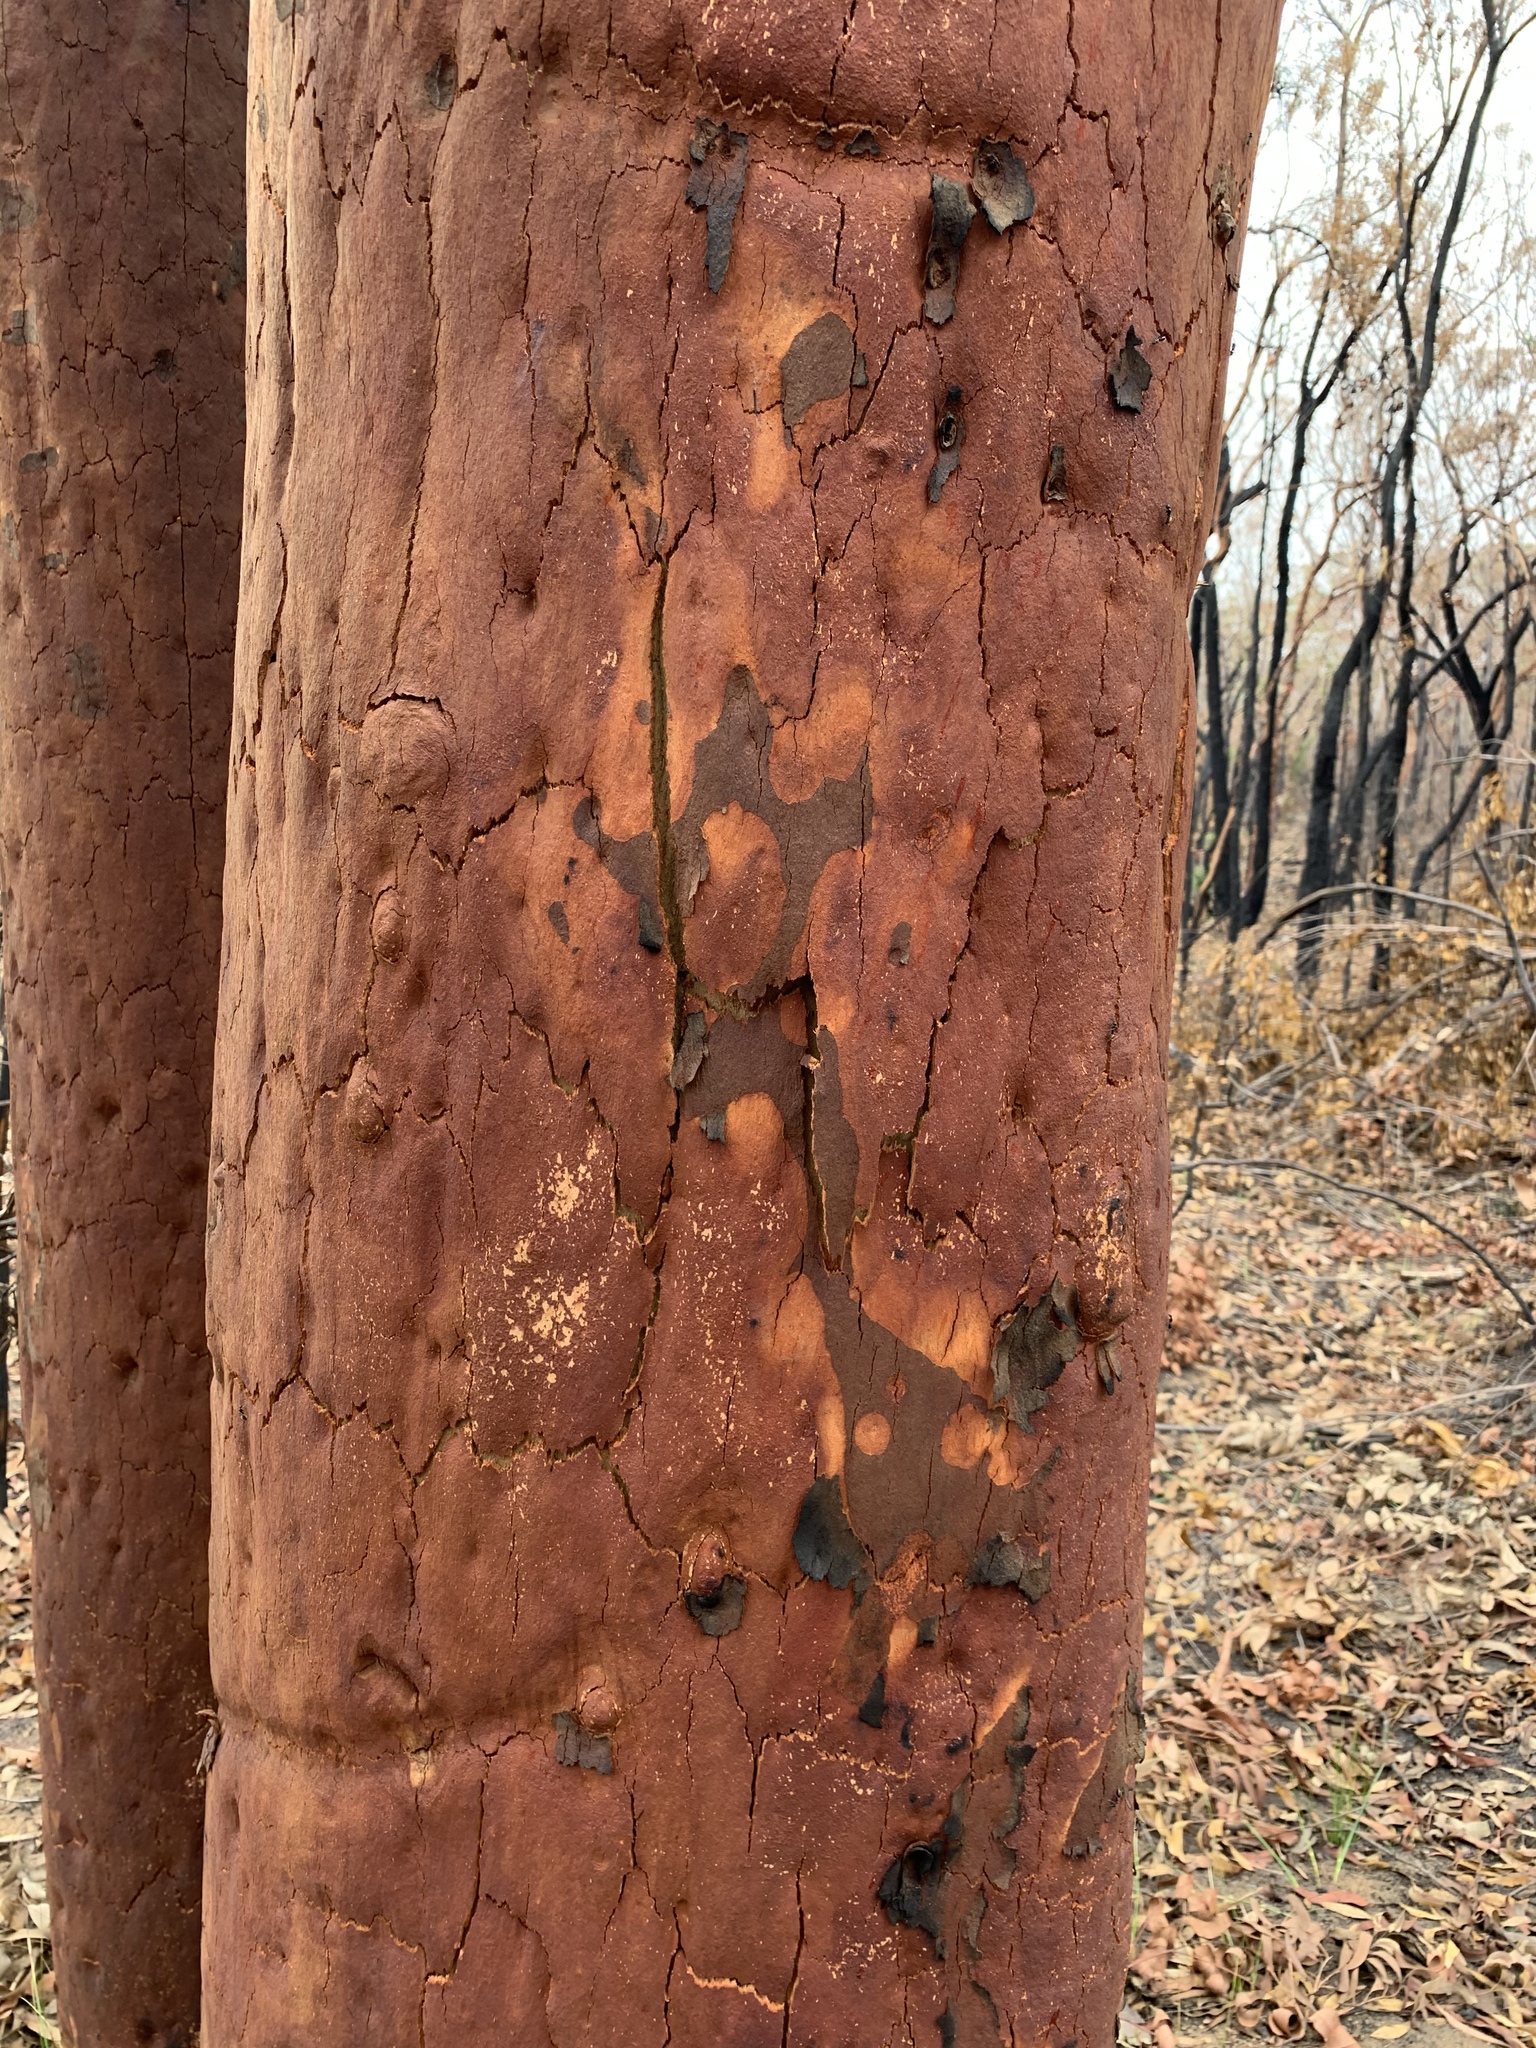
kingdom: Plantae
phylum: Tracheophyta
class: Magnoliopsida
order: Myrtales
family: Myrtaceae
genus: Angophora
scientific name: Angophora costata
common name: Gum myrtle
